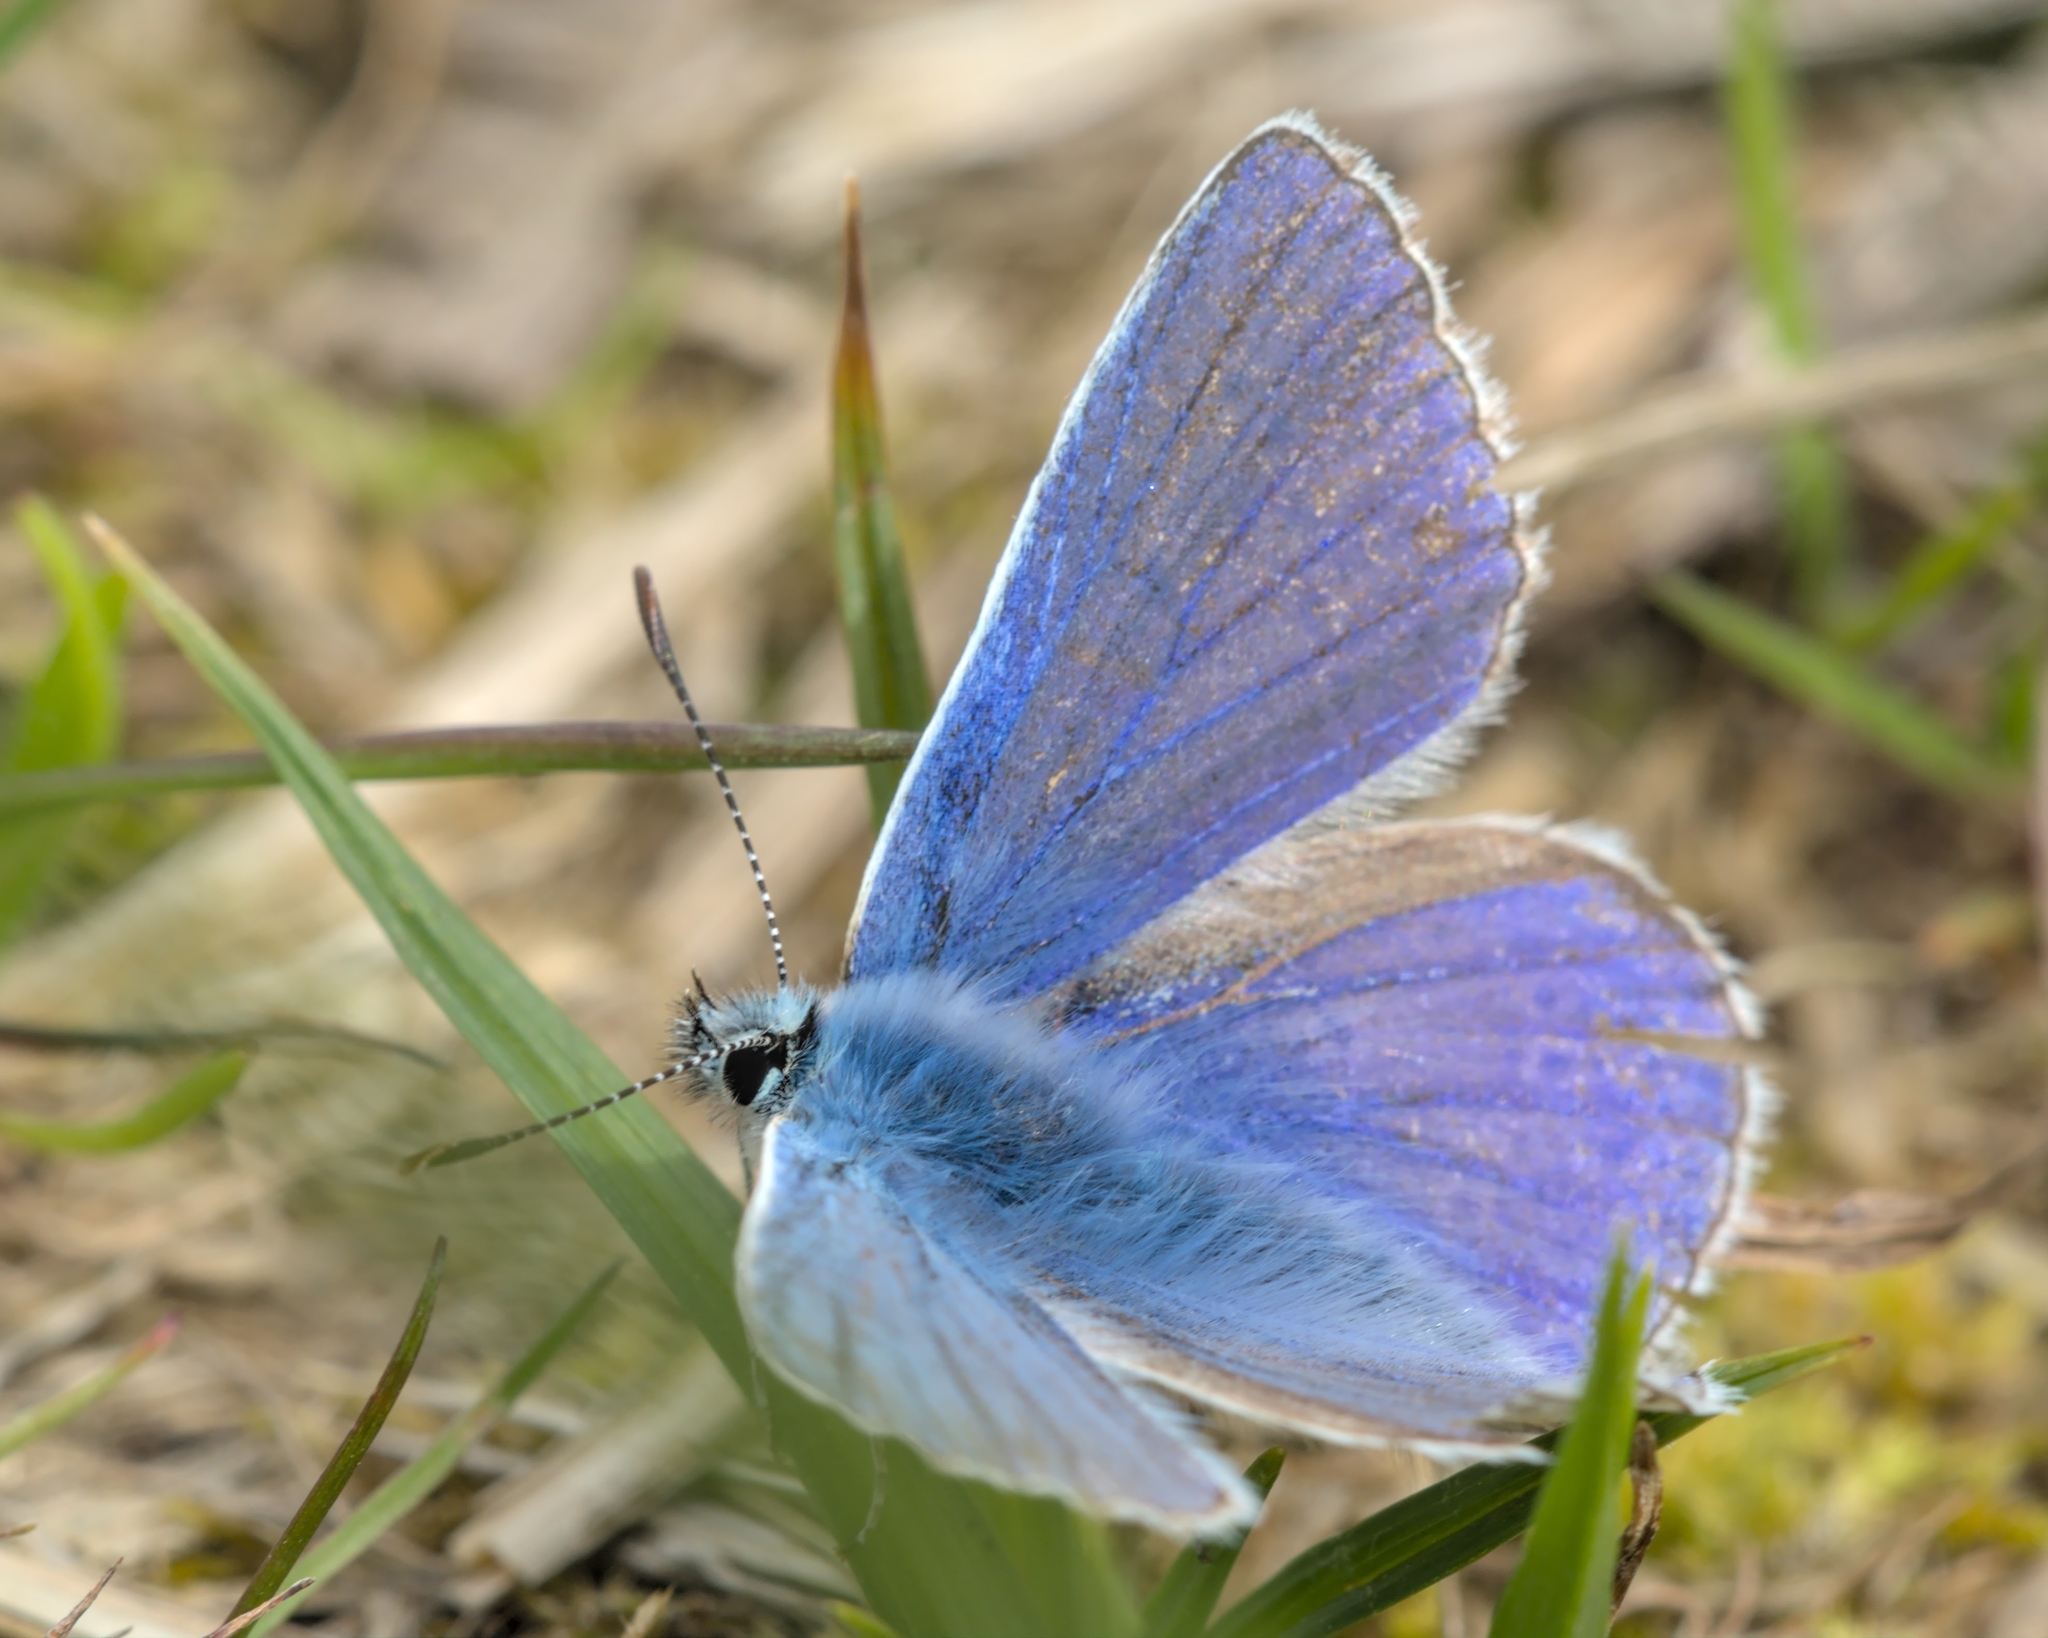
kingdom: Animalia
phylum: Arthropoda
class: Insecta
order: Lepidoptera
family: Lycaenidae
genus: Polyommatus
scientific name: Polyommatus icarus
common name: Common blue
